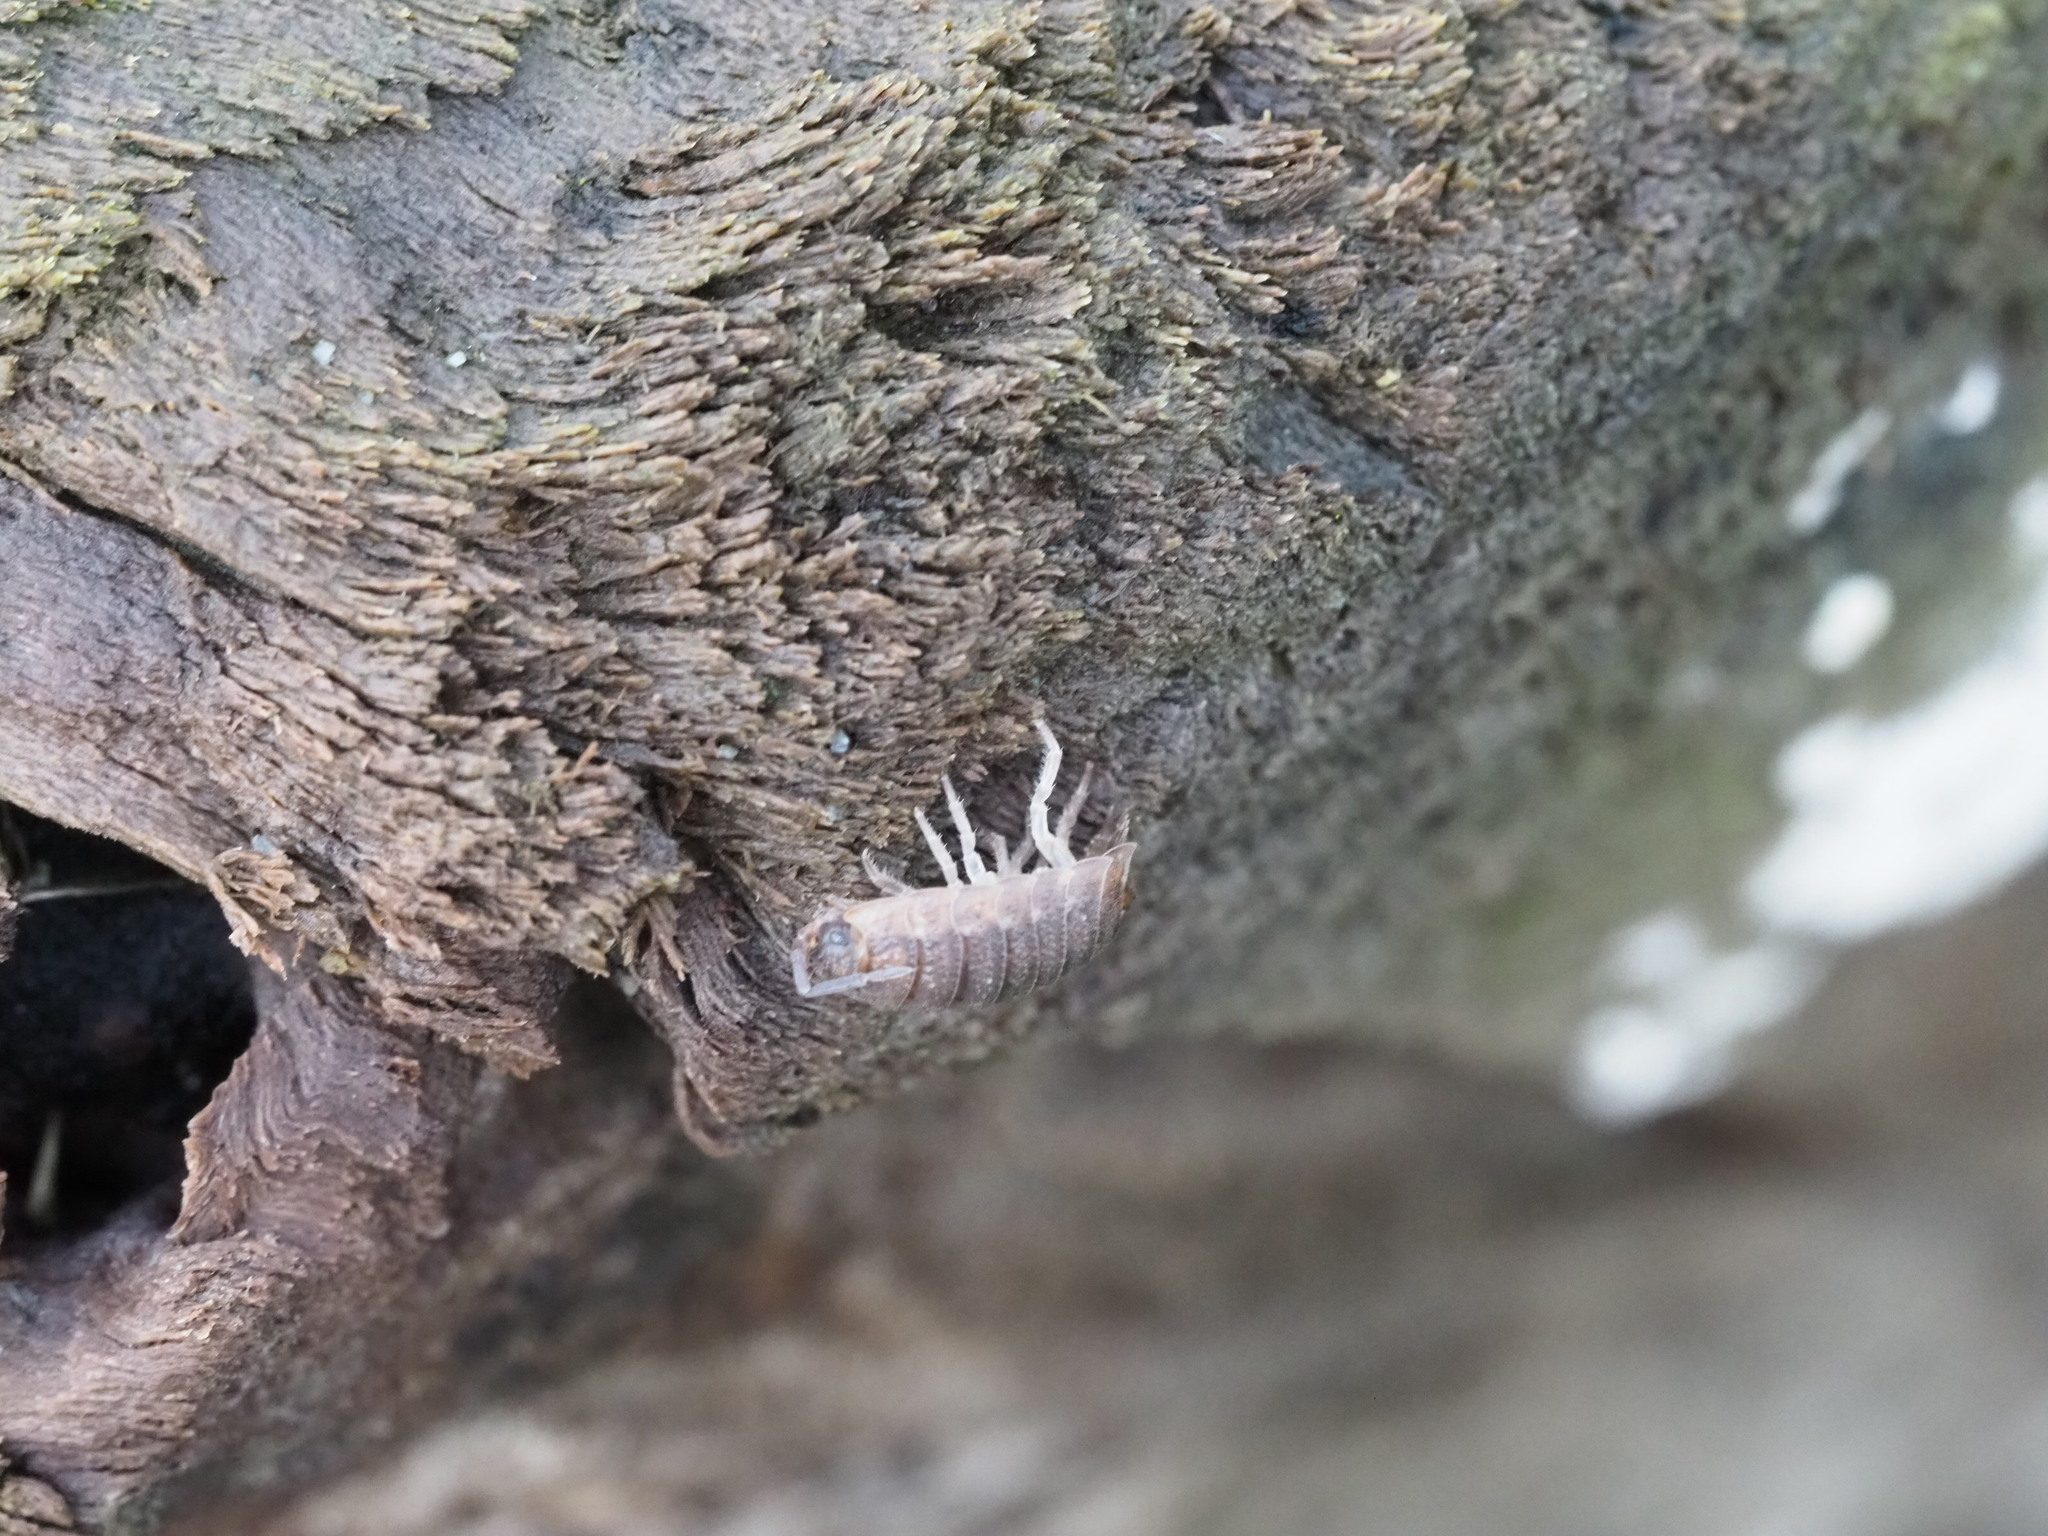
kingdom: Animalia
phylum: Arthropoda
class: Malacostraca
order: Isopoda
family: Porcellionidae
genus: Porcellio
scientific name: Porcellio scaber
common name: Common rough woodlouse
